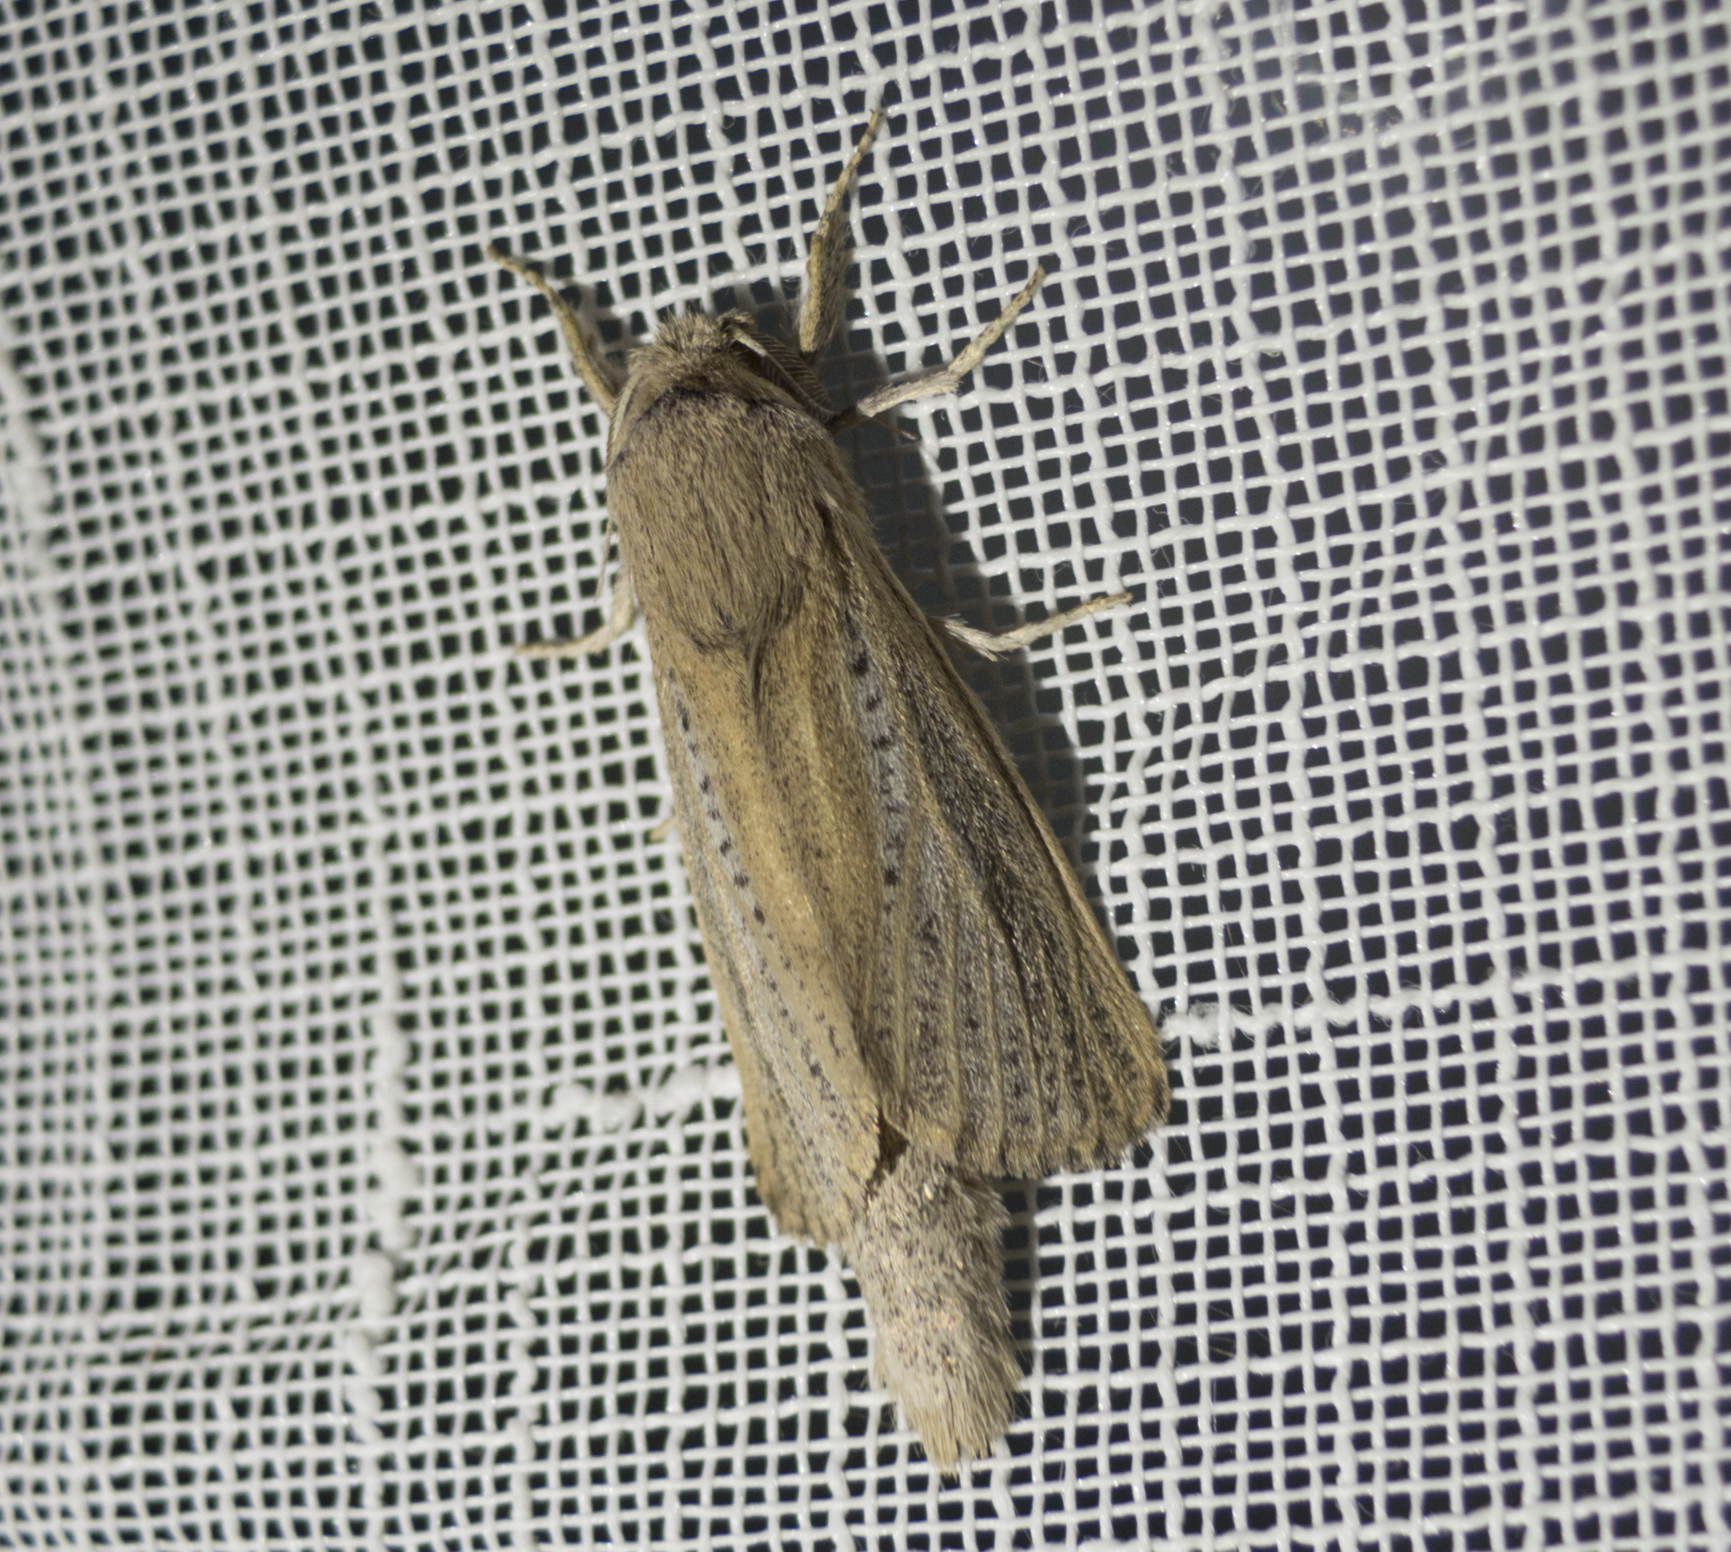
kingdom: Animalia
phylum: Arthropoda
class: Insecta
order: Lepidoptera
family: Cossidae
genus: Phragmataecia
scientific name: Phragmataecia castaneae
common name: Reed leopard
